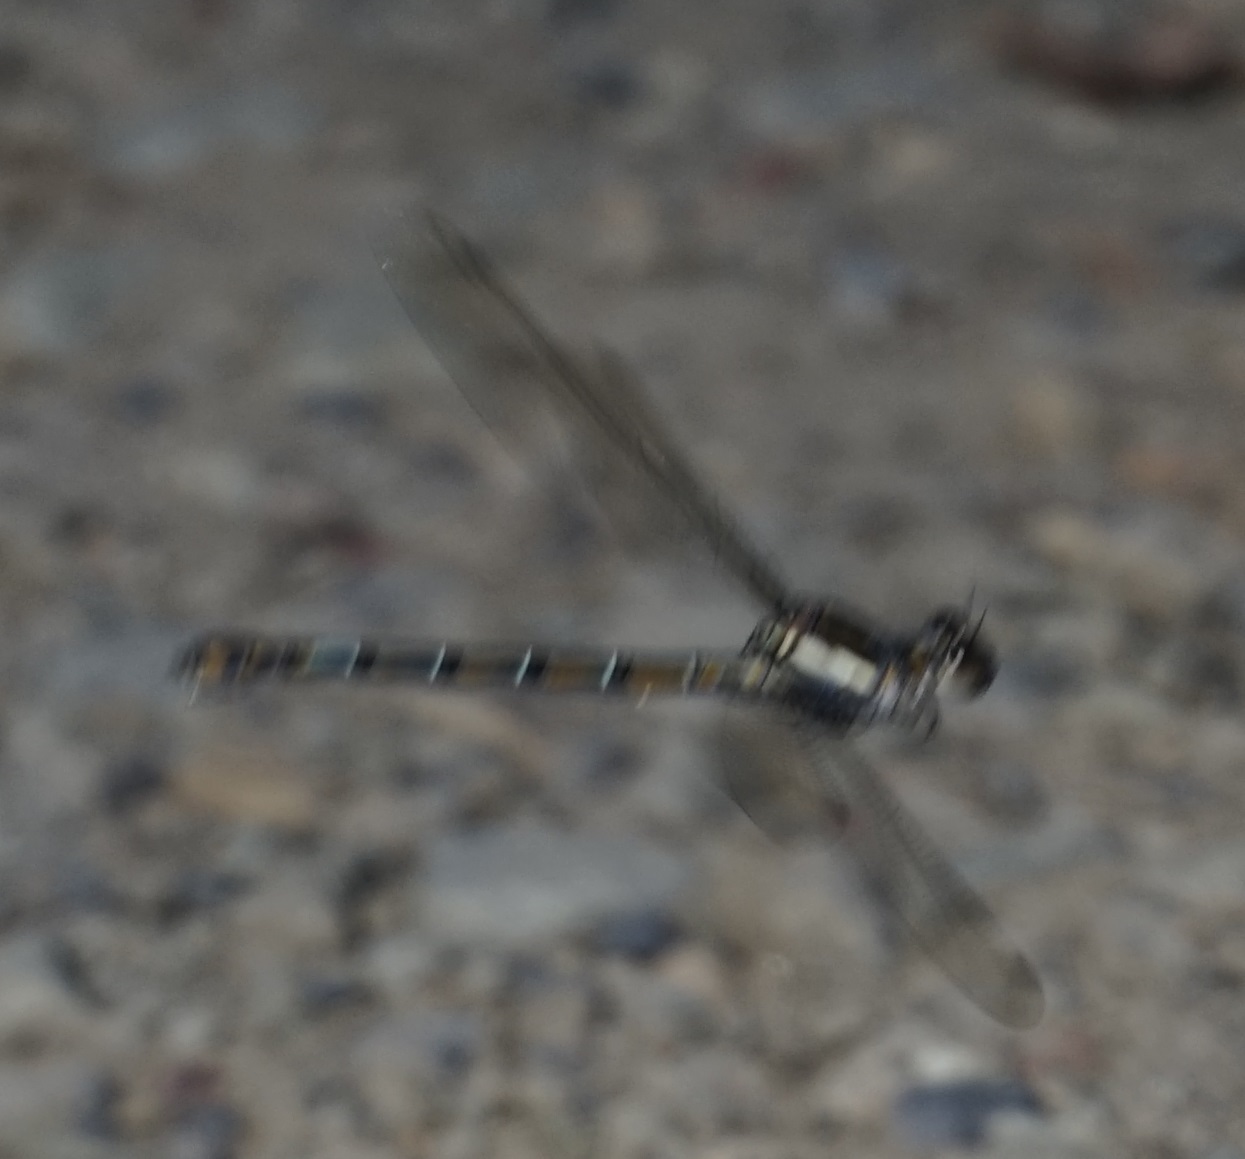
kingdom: Animalia
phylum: Arthropoda
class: Insecta
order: Odonata
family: Lestoideidae
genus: Diphlebia
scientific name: Diphlebia lestoides
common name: Whitewater rockmaster
